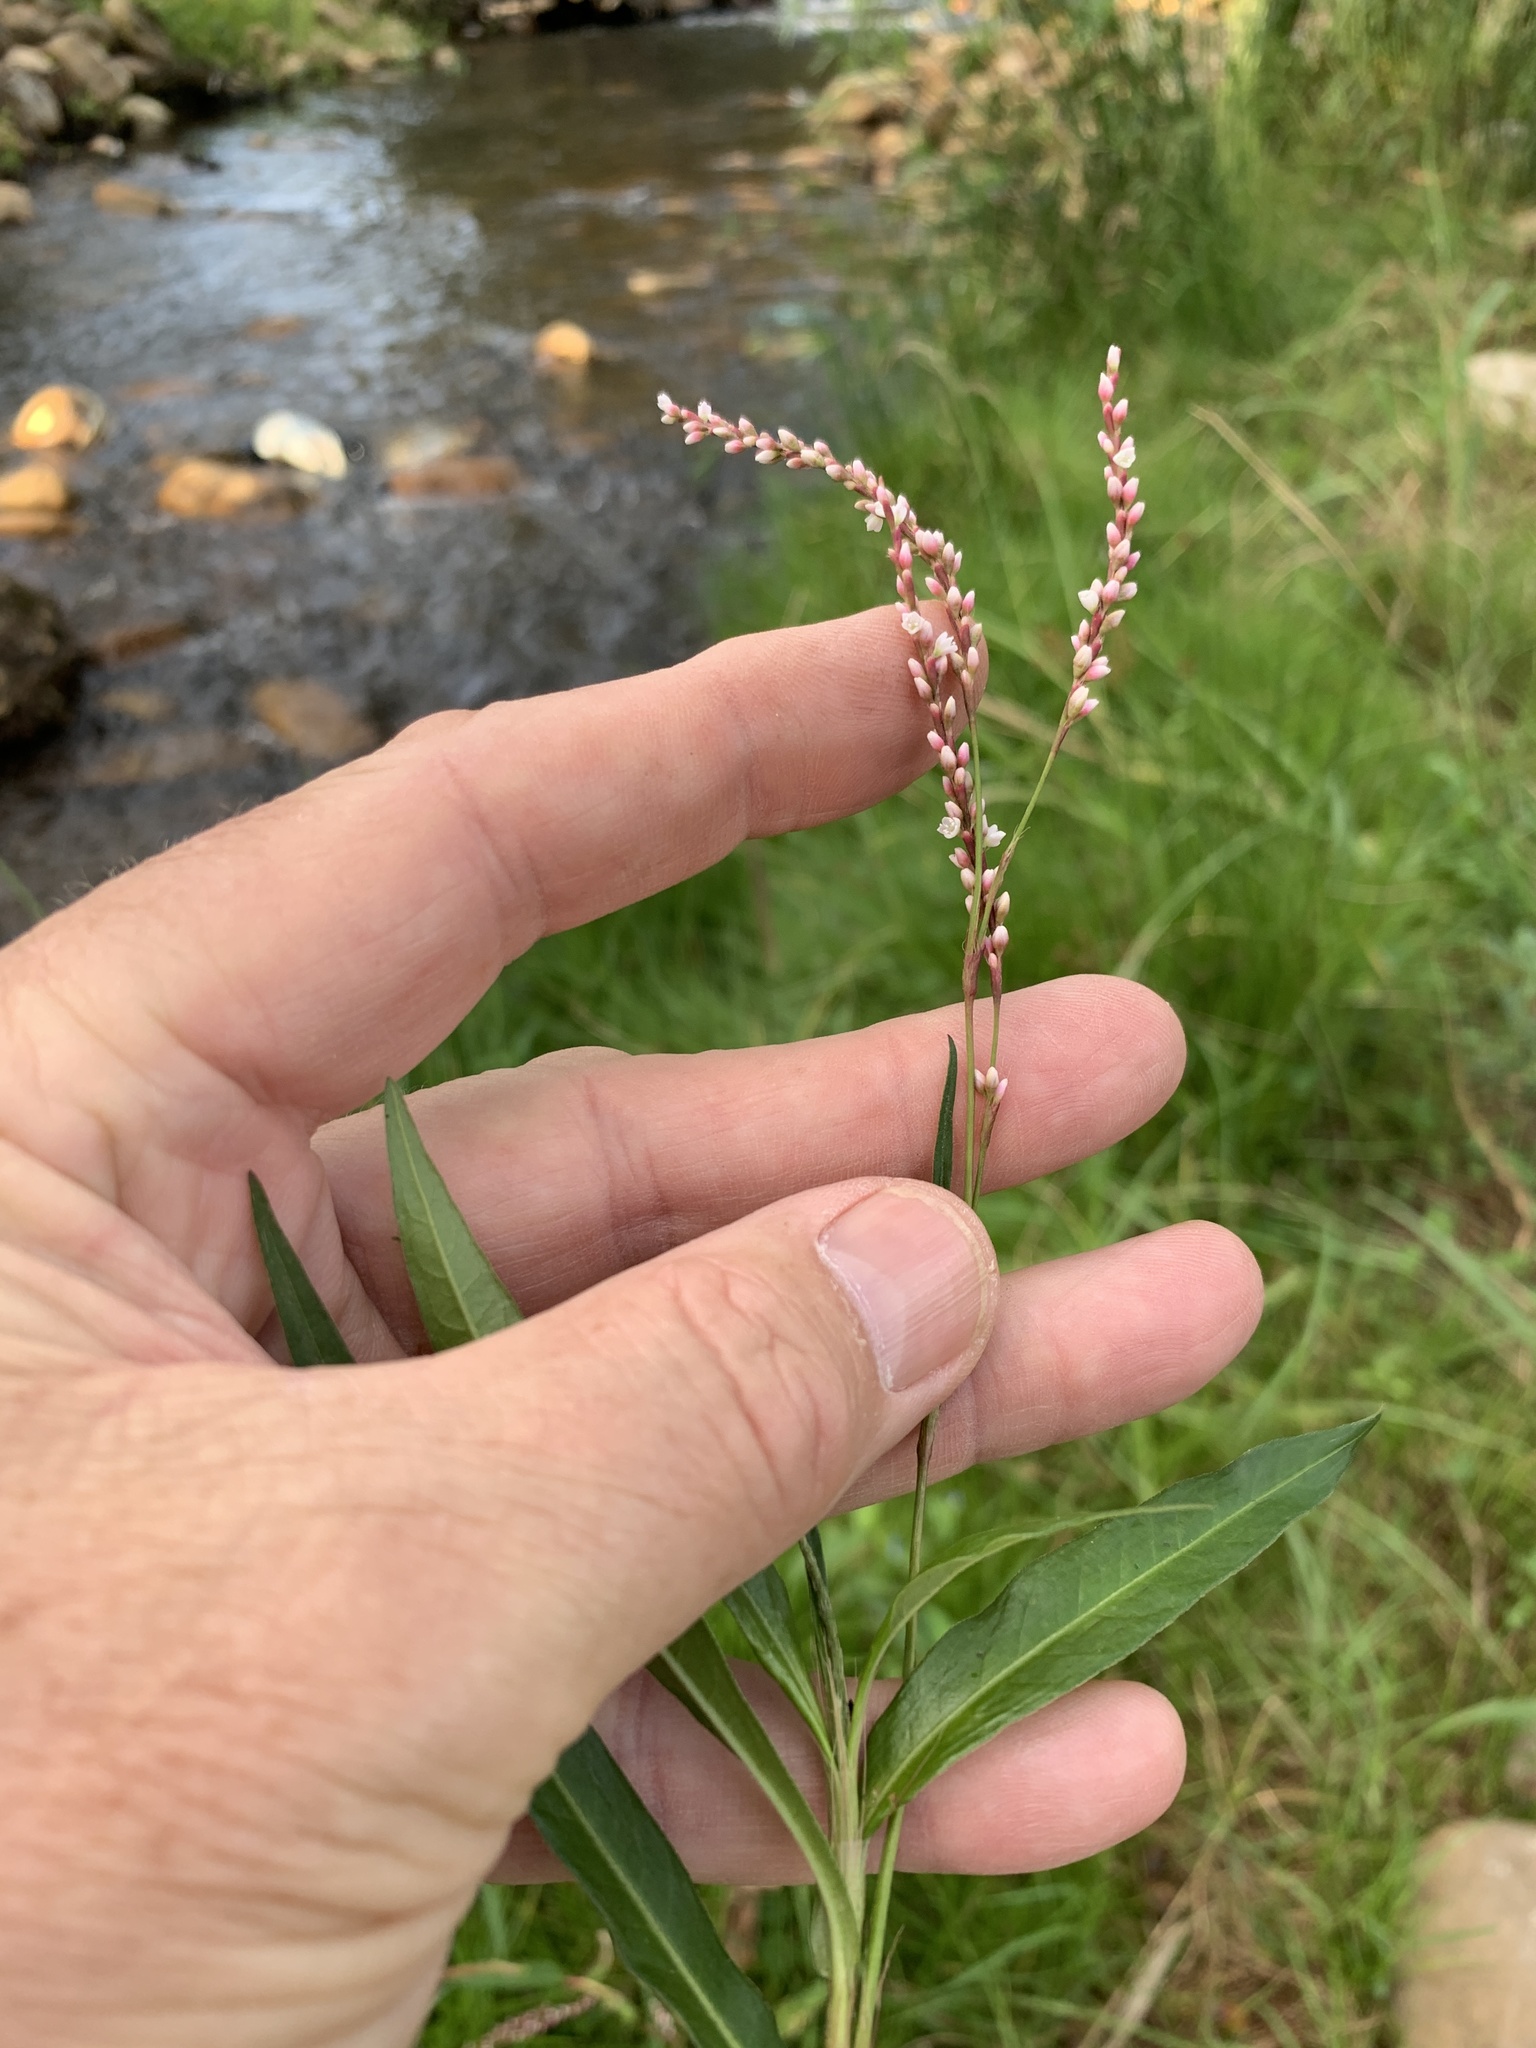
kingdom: Plantae
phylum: Tracheophyta
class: Magnoliopsida
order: Caryophyllales
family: Polygonaceae
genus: Persicaria
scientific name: Persicaria decipiens
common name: Willow-weed
